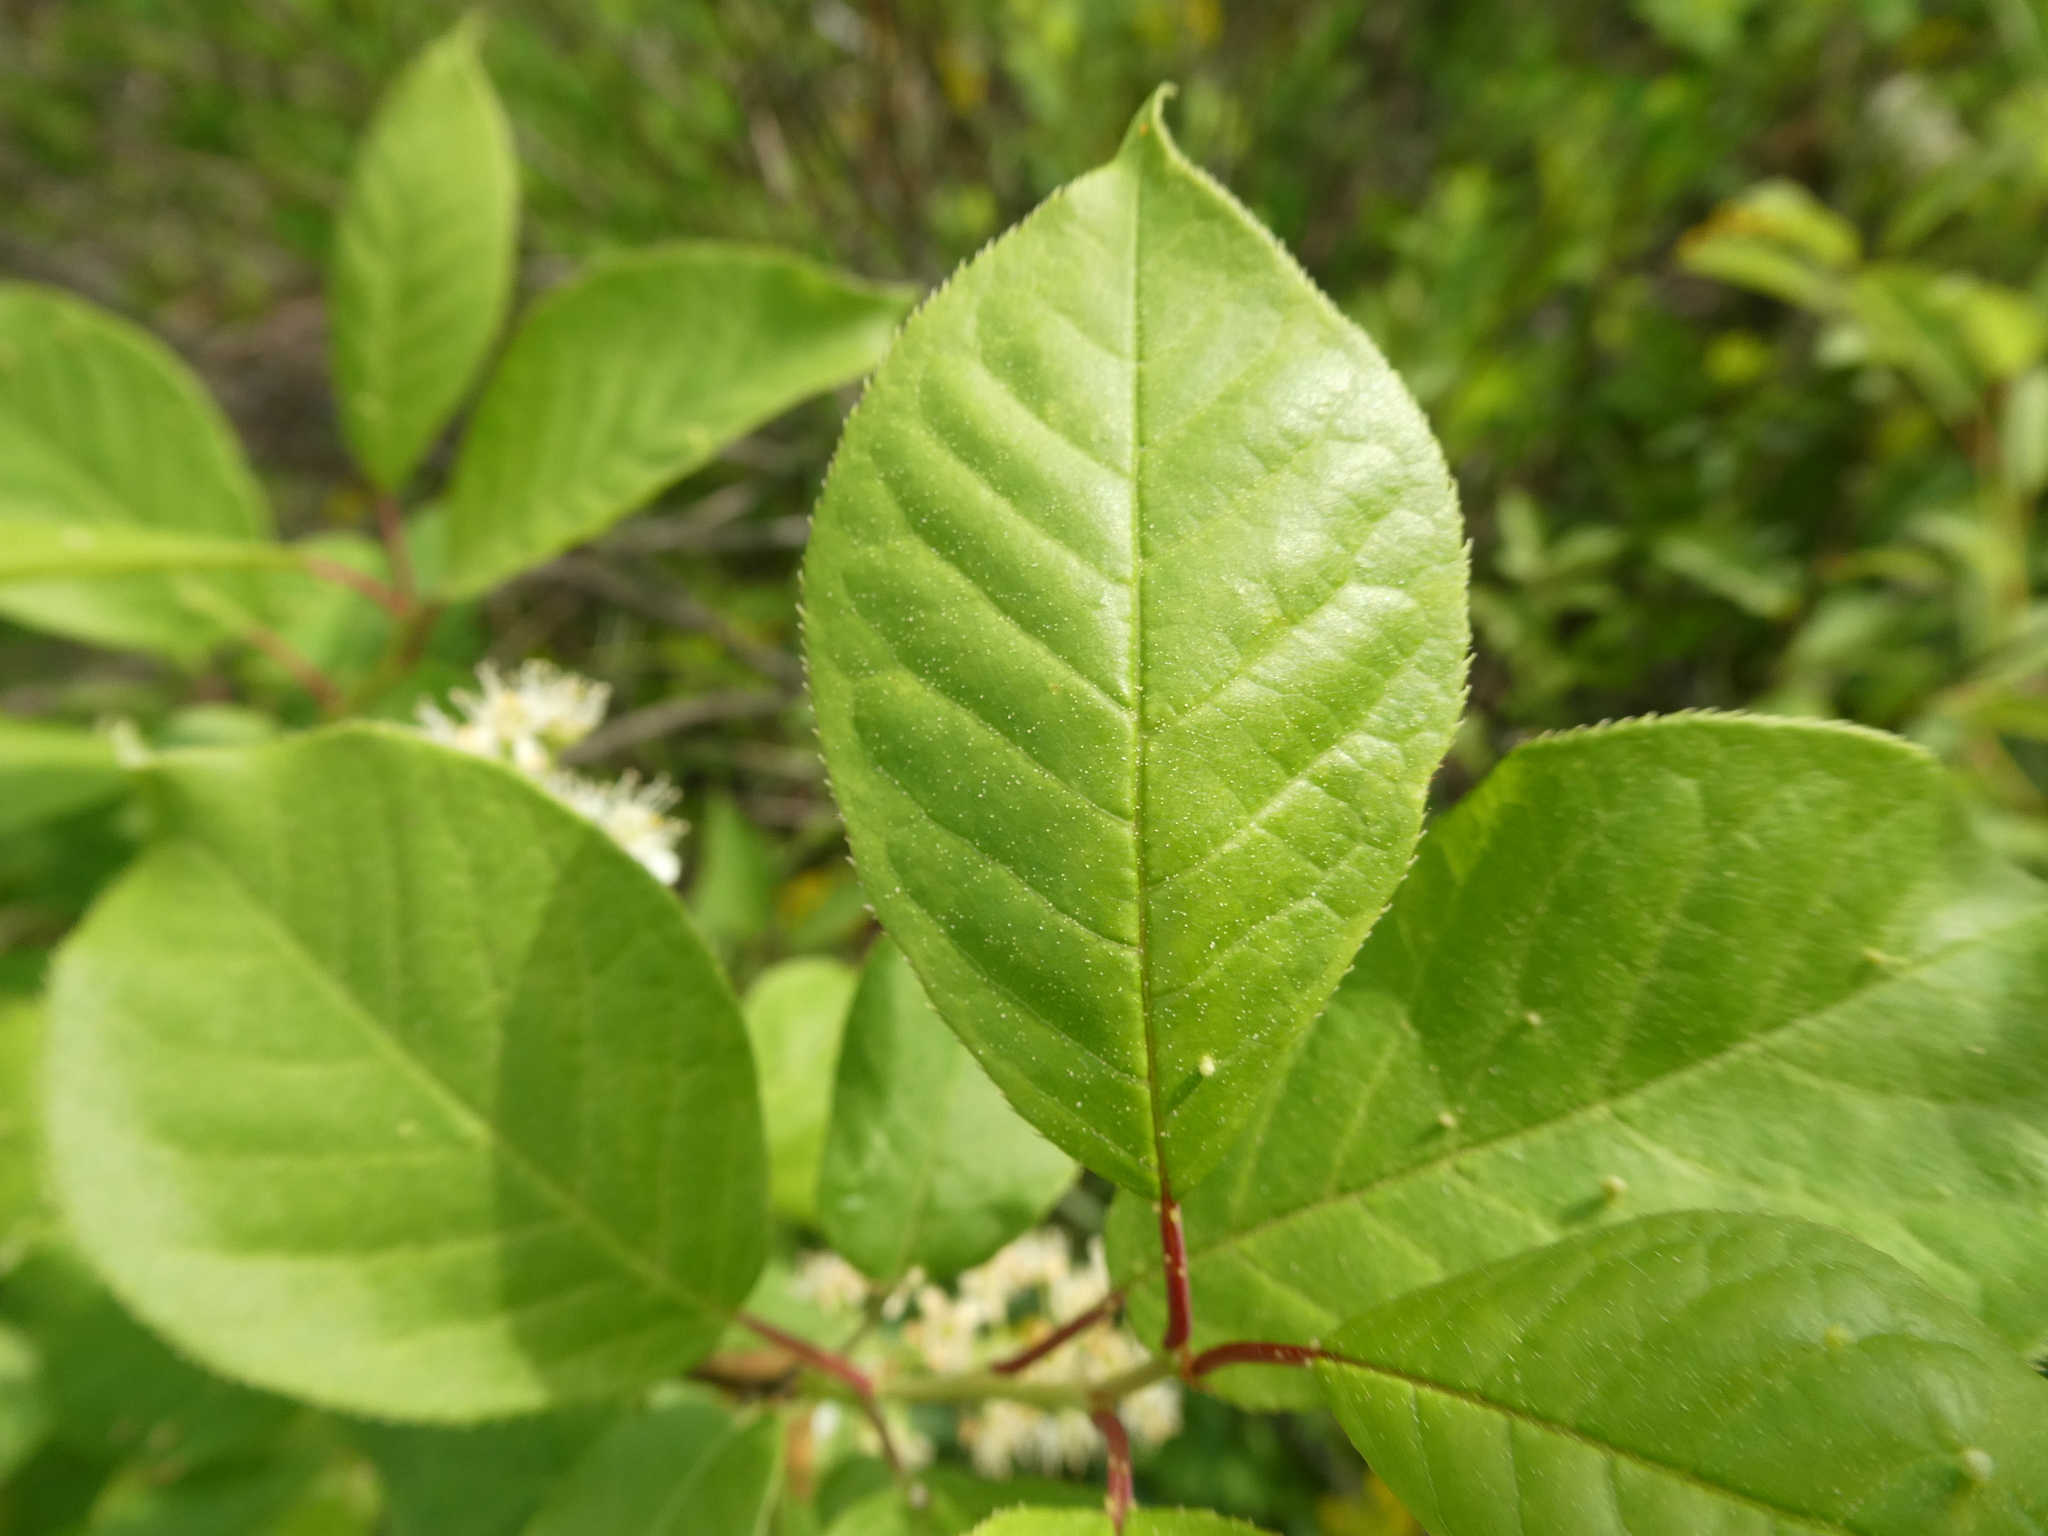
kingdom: Plantae
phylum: Tracheophyta
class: Magnoliopsida
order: Rosales
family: Rosaceae
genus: Prunus
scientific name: Prunus virginiana
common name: Chokecherry
